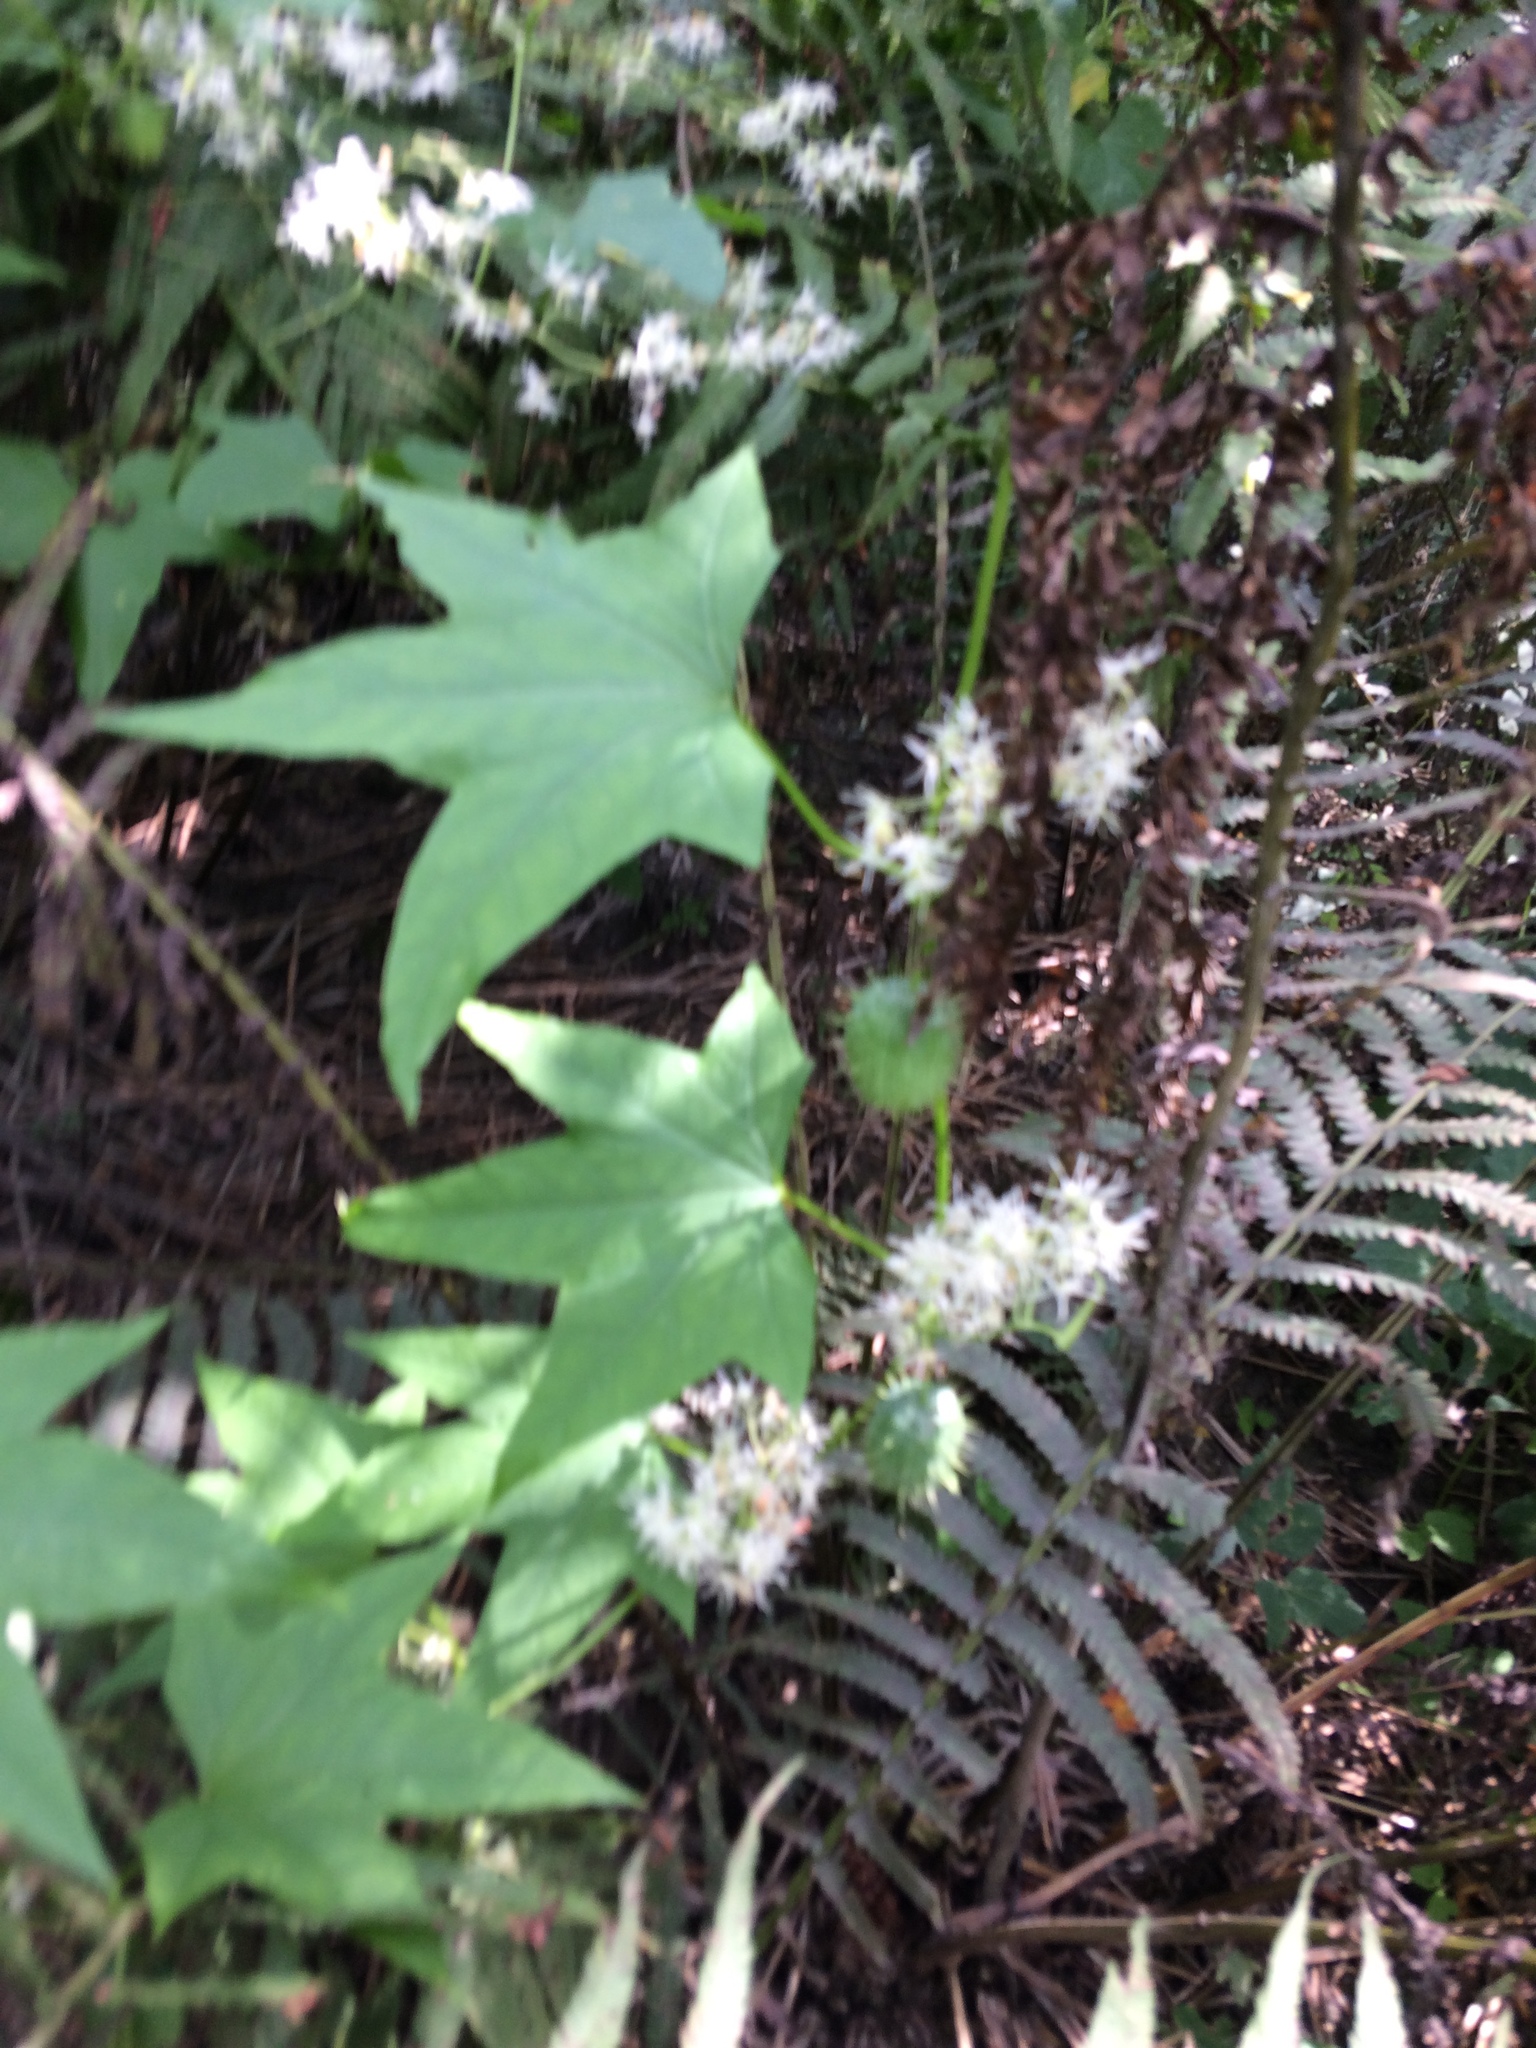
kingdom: Plantae
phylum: Tracheophyta
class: Magnoliopsida
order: Cucurbitales
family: Cucurbitaceae
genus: Echinocystis
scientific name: Echinocystis lobata
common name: Wild cucumber
